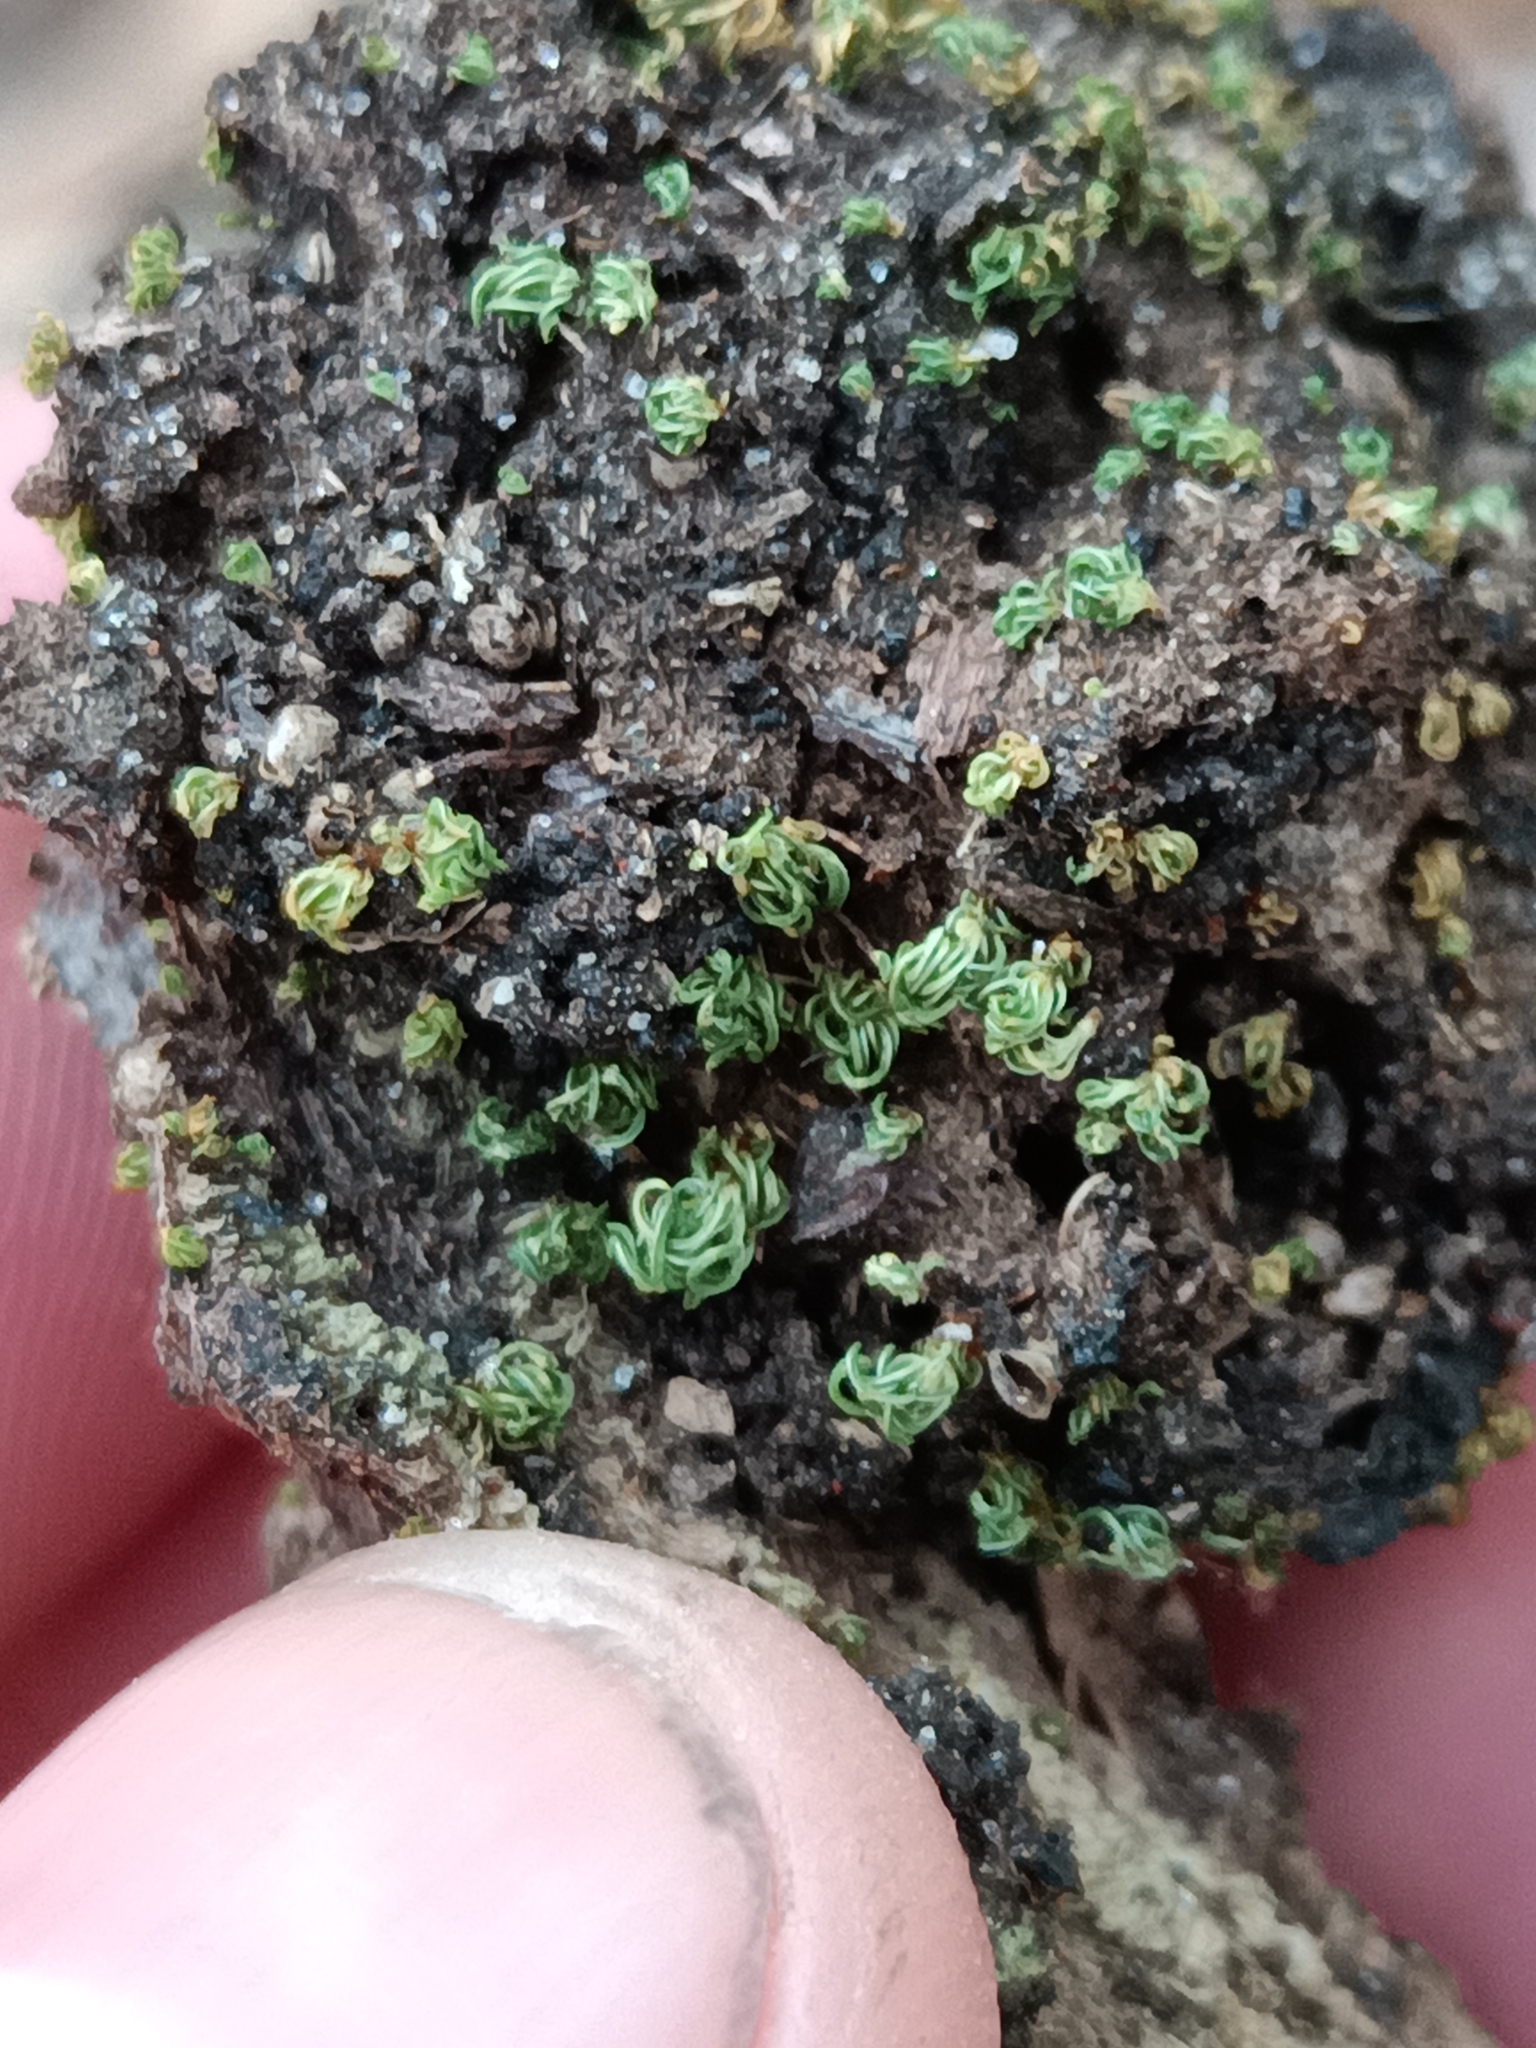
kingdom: Plantae
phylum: Bryophyta
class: Bryopsida
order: Pottiales
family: Pottiaceae
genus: Calymperastrum
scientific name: Calymperastrum latifolium
